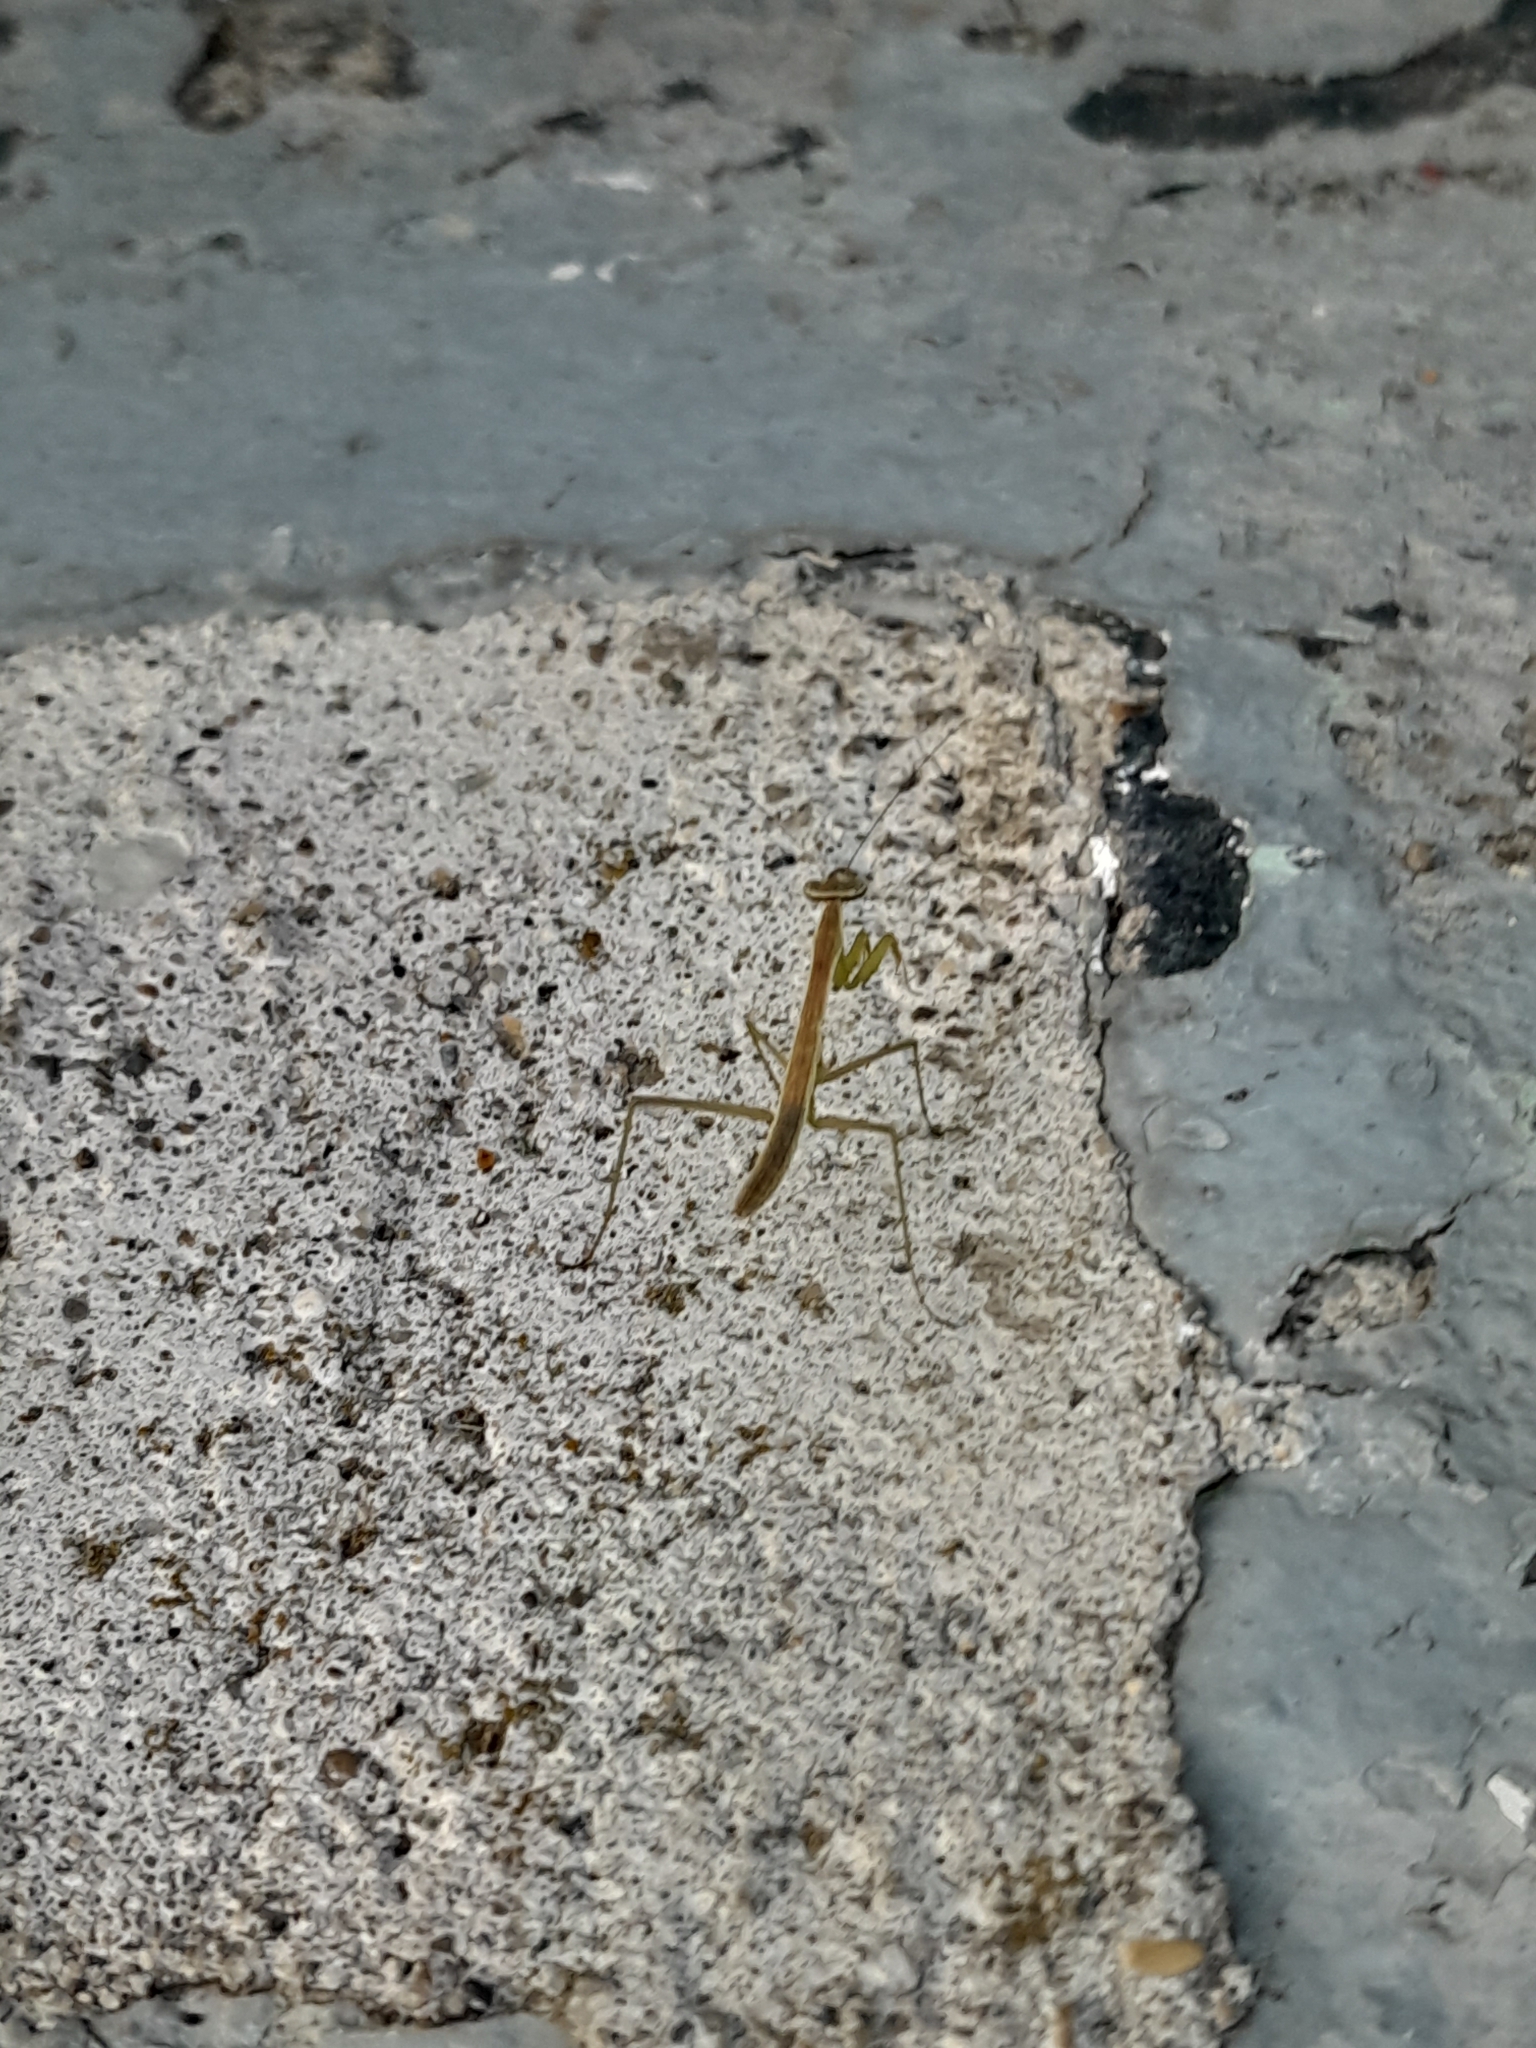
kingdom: Animalia
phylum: Arthropoda
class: Insecta
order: Mantodea
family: Mantidae
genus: Tenodera
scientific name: Tenodera sinensis
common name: Chinese mantis
